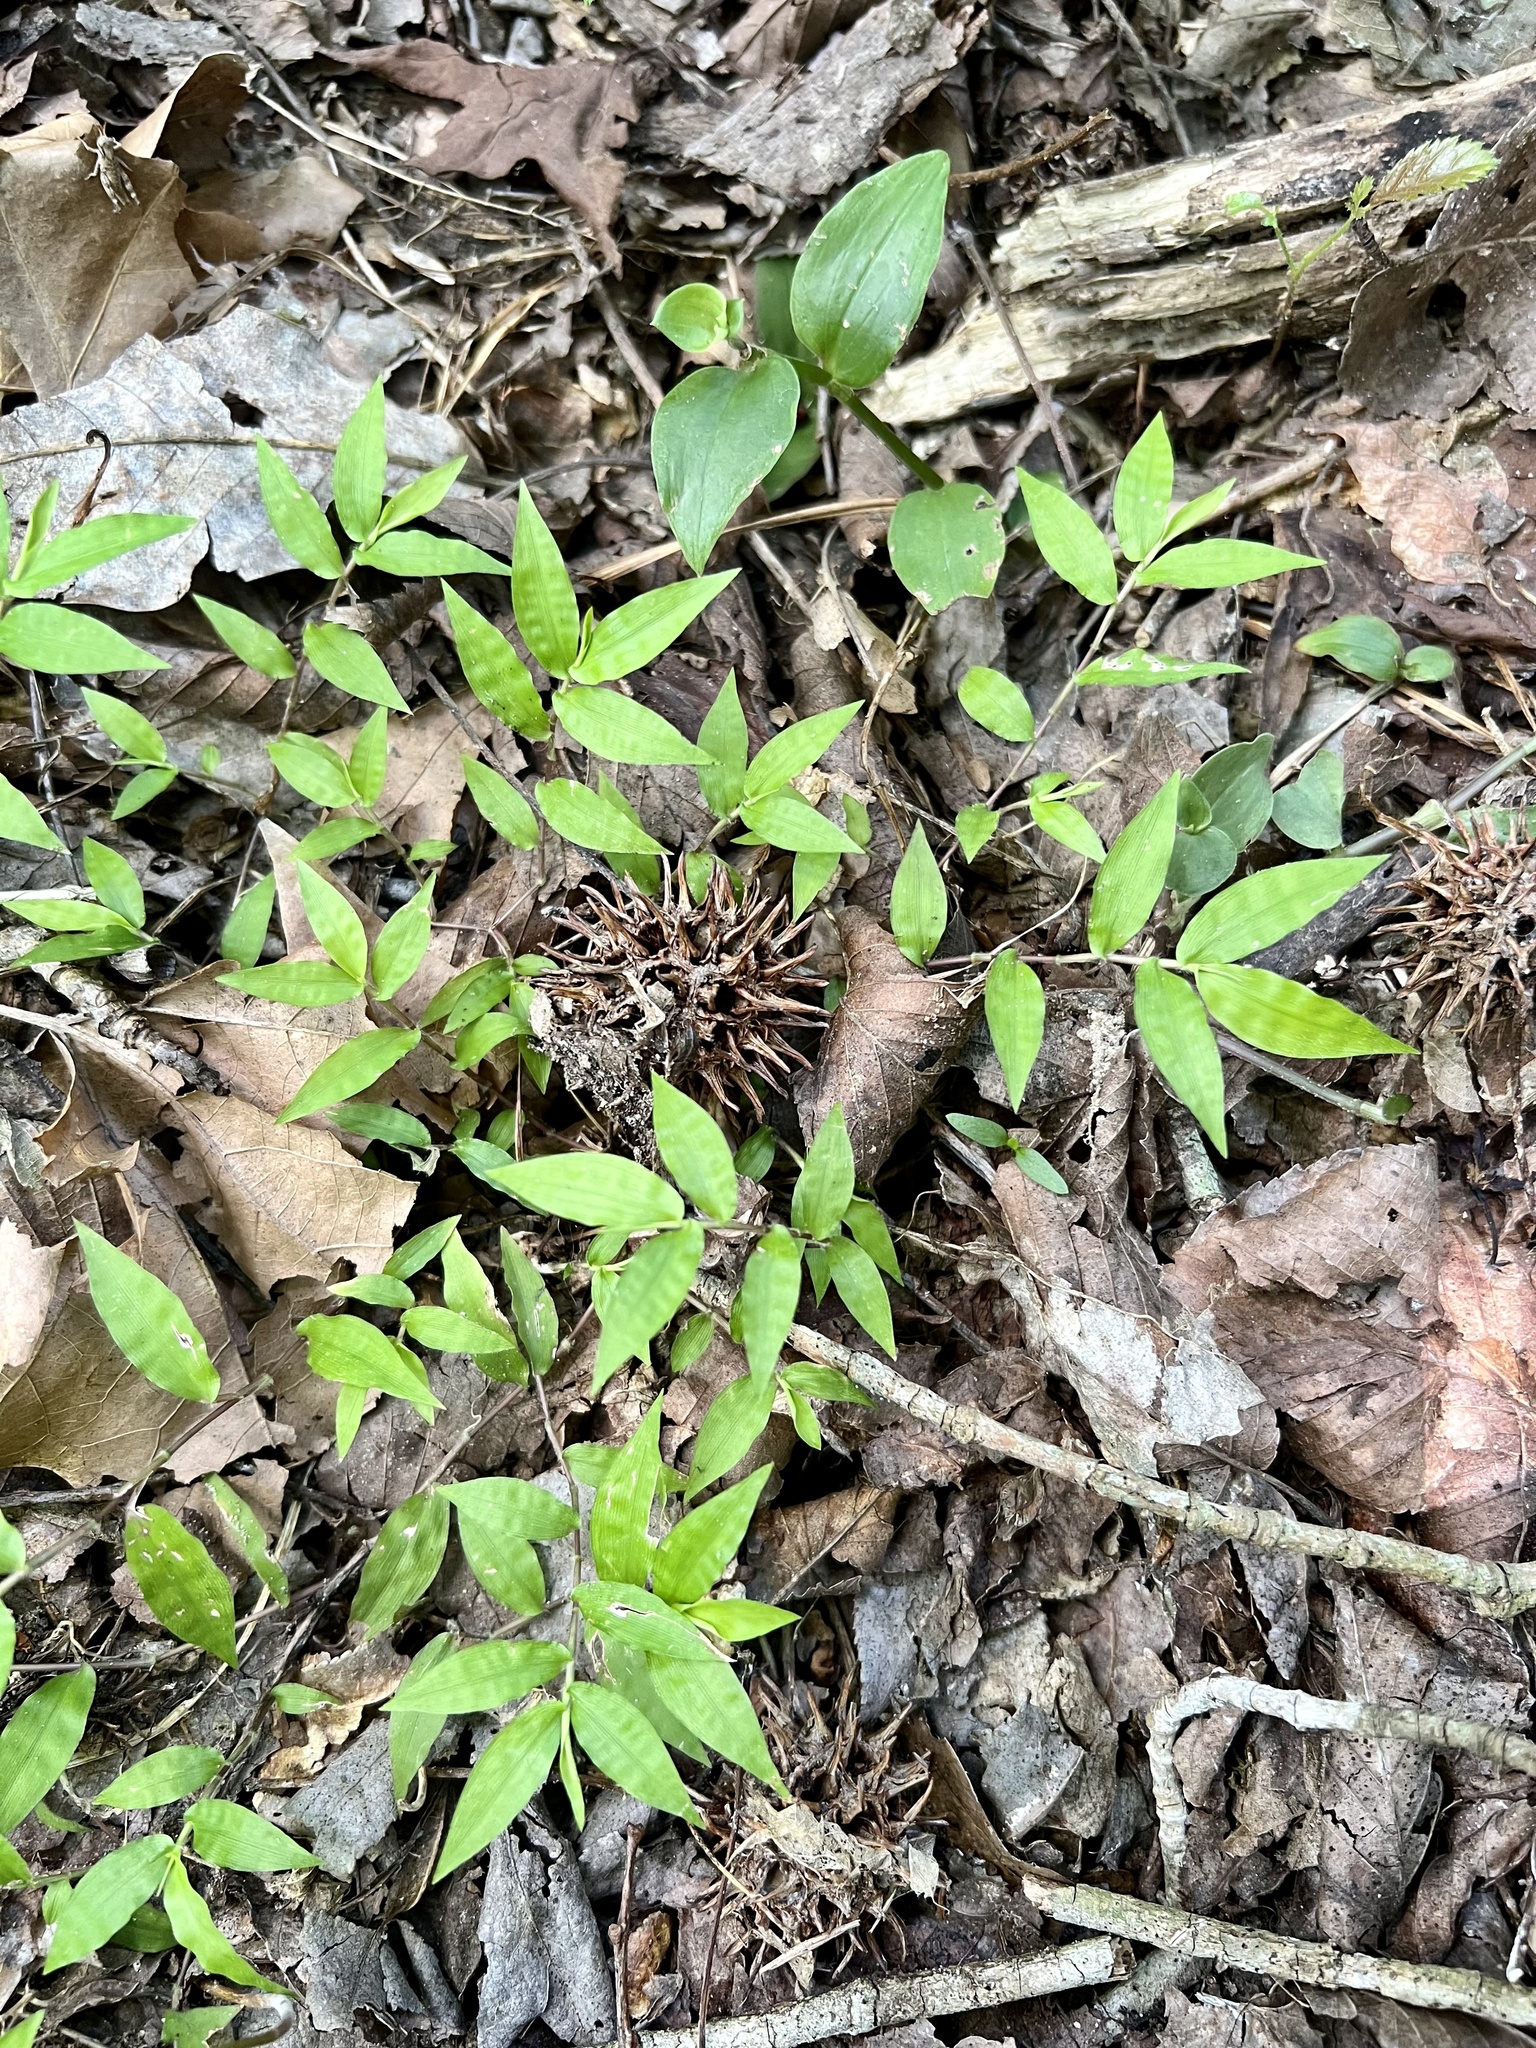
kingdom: Plantae
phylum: Tracheophyta
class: Liliopsida
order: Poales
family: Poaceae
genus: Oplismenus
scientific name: Oplismenus hirtellus
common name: Basketgrass
